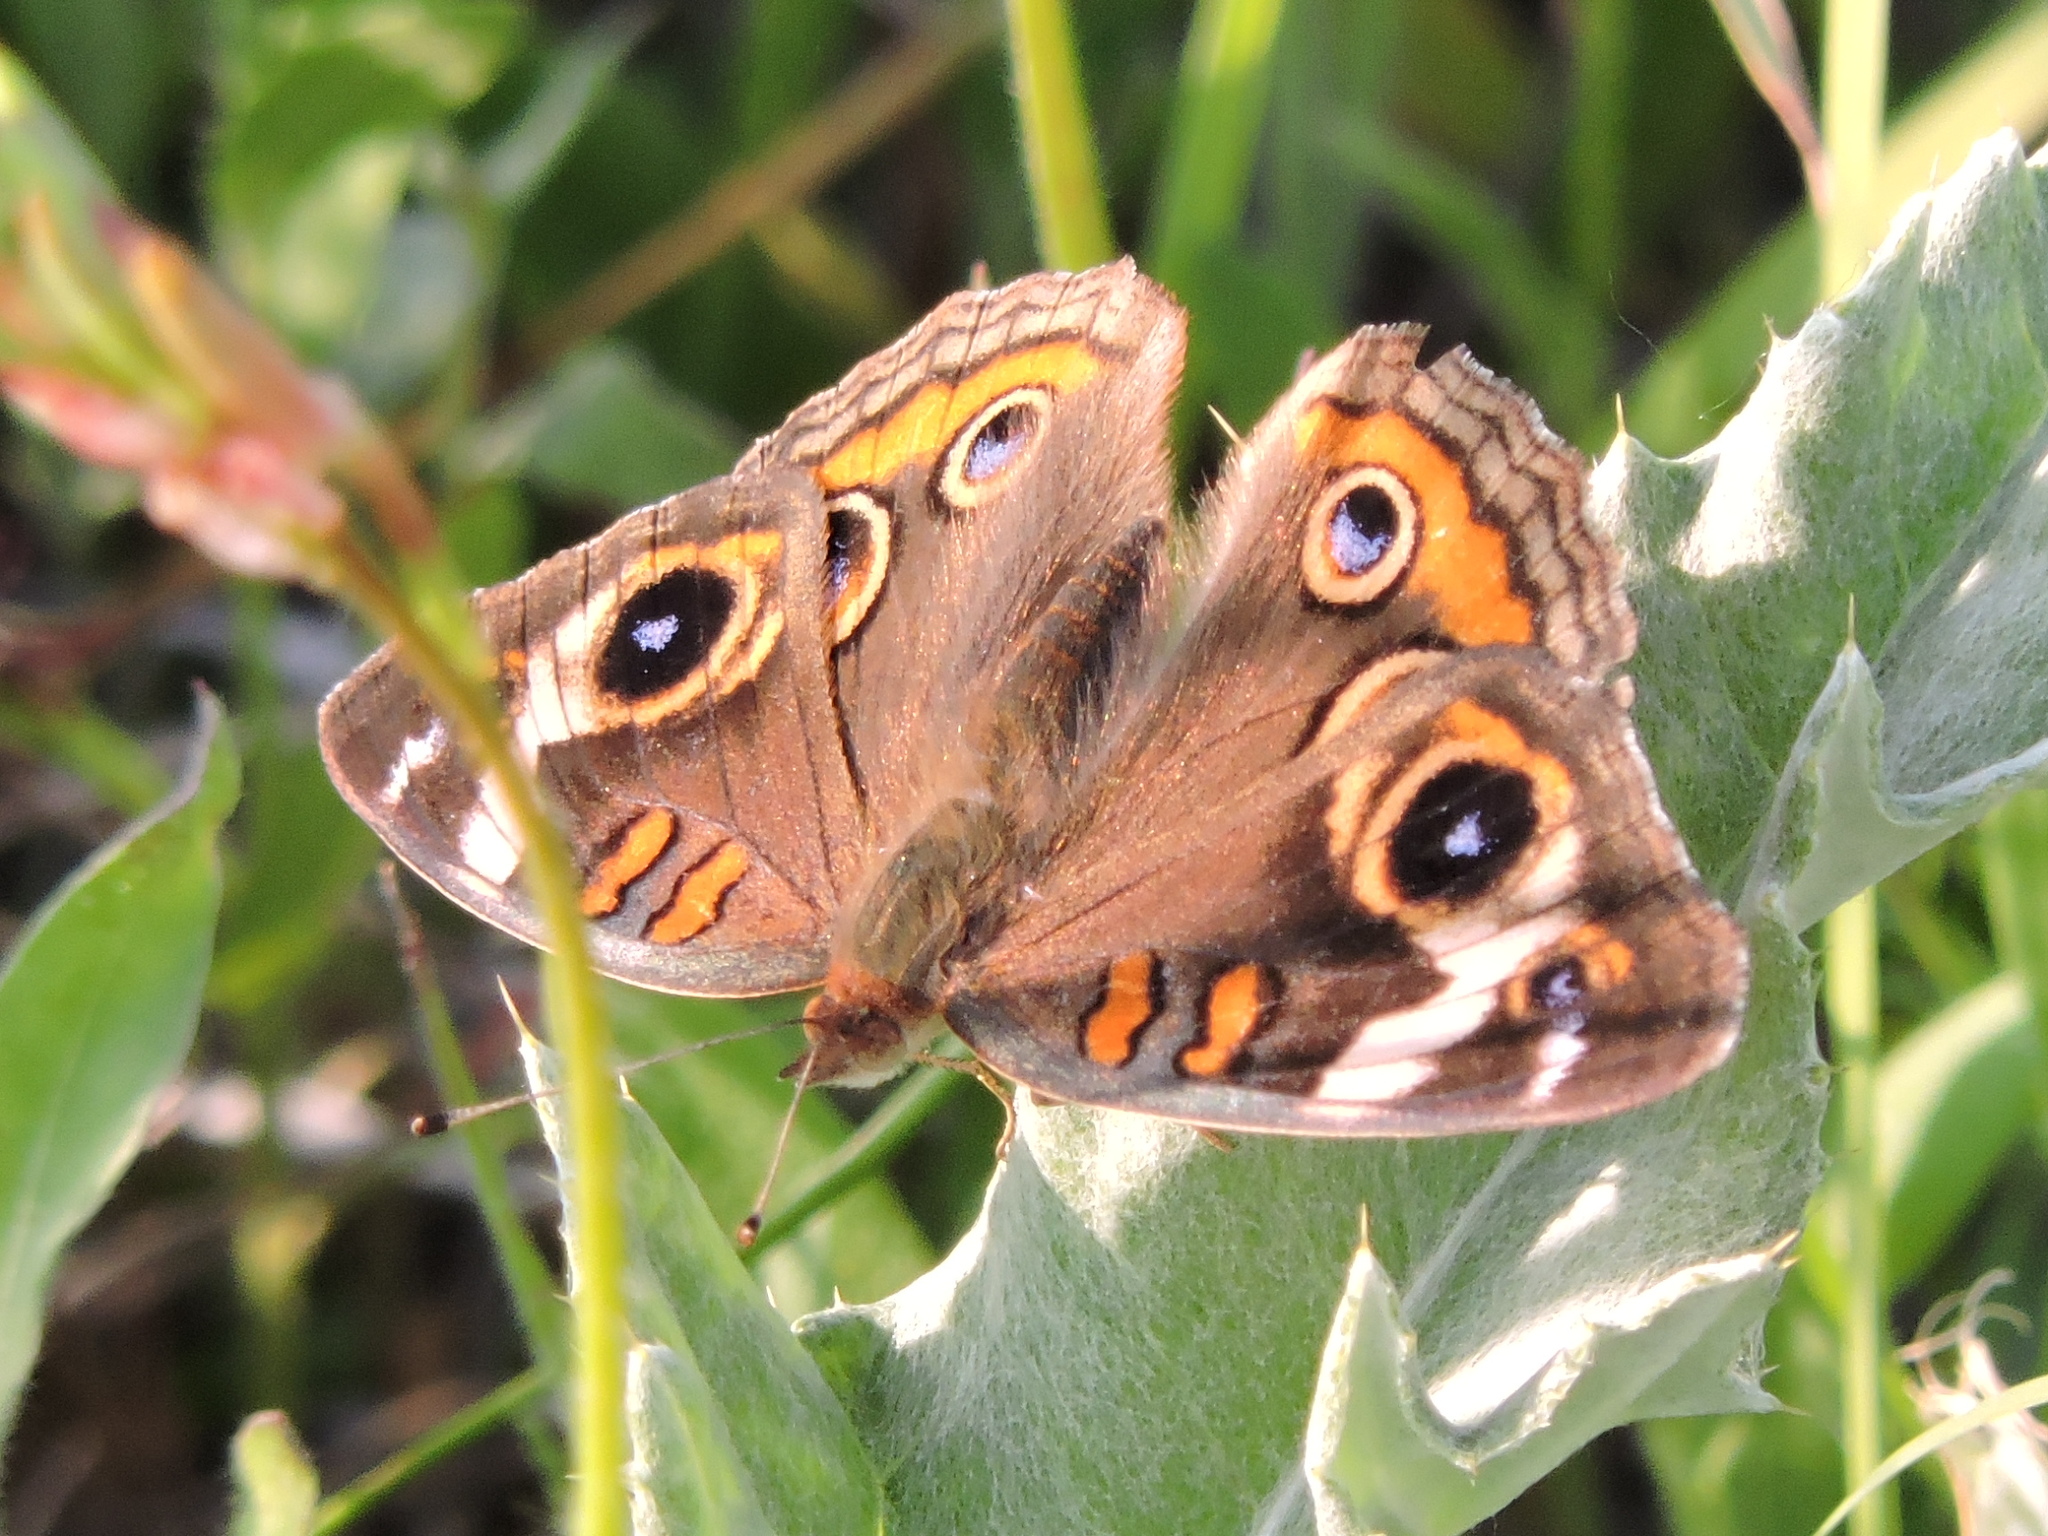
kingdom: Animalia
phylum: Arthropoda
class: Insecta
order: Lepidoptera
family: Nymphalidae
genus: Junonia
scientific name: Junonia coenia
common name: Common buckeye
